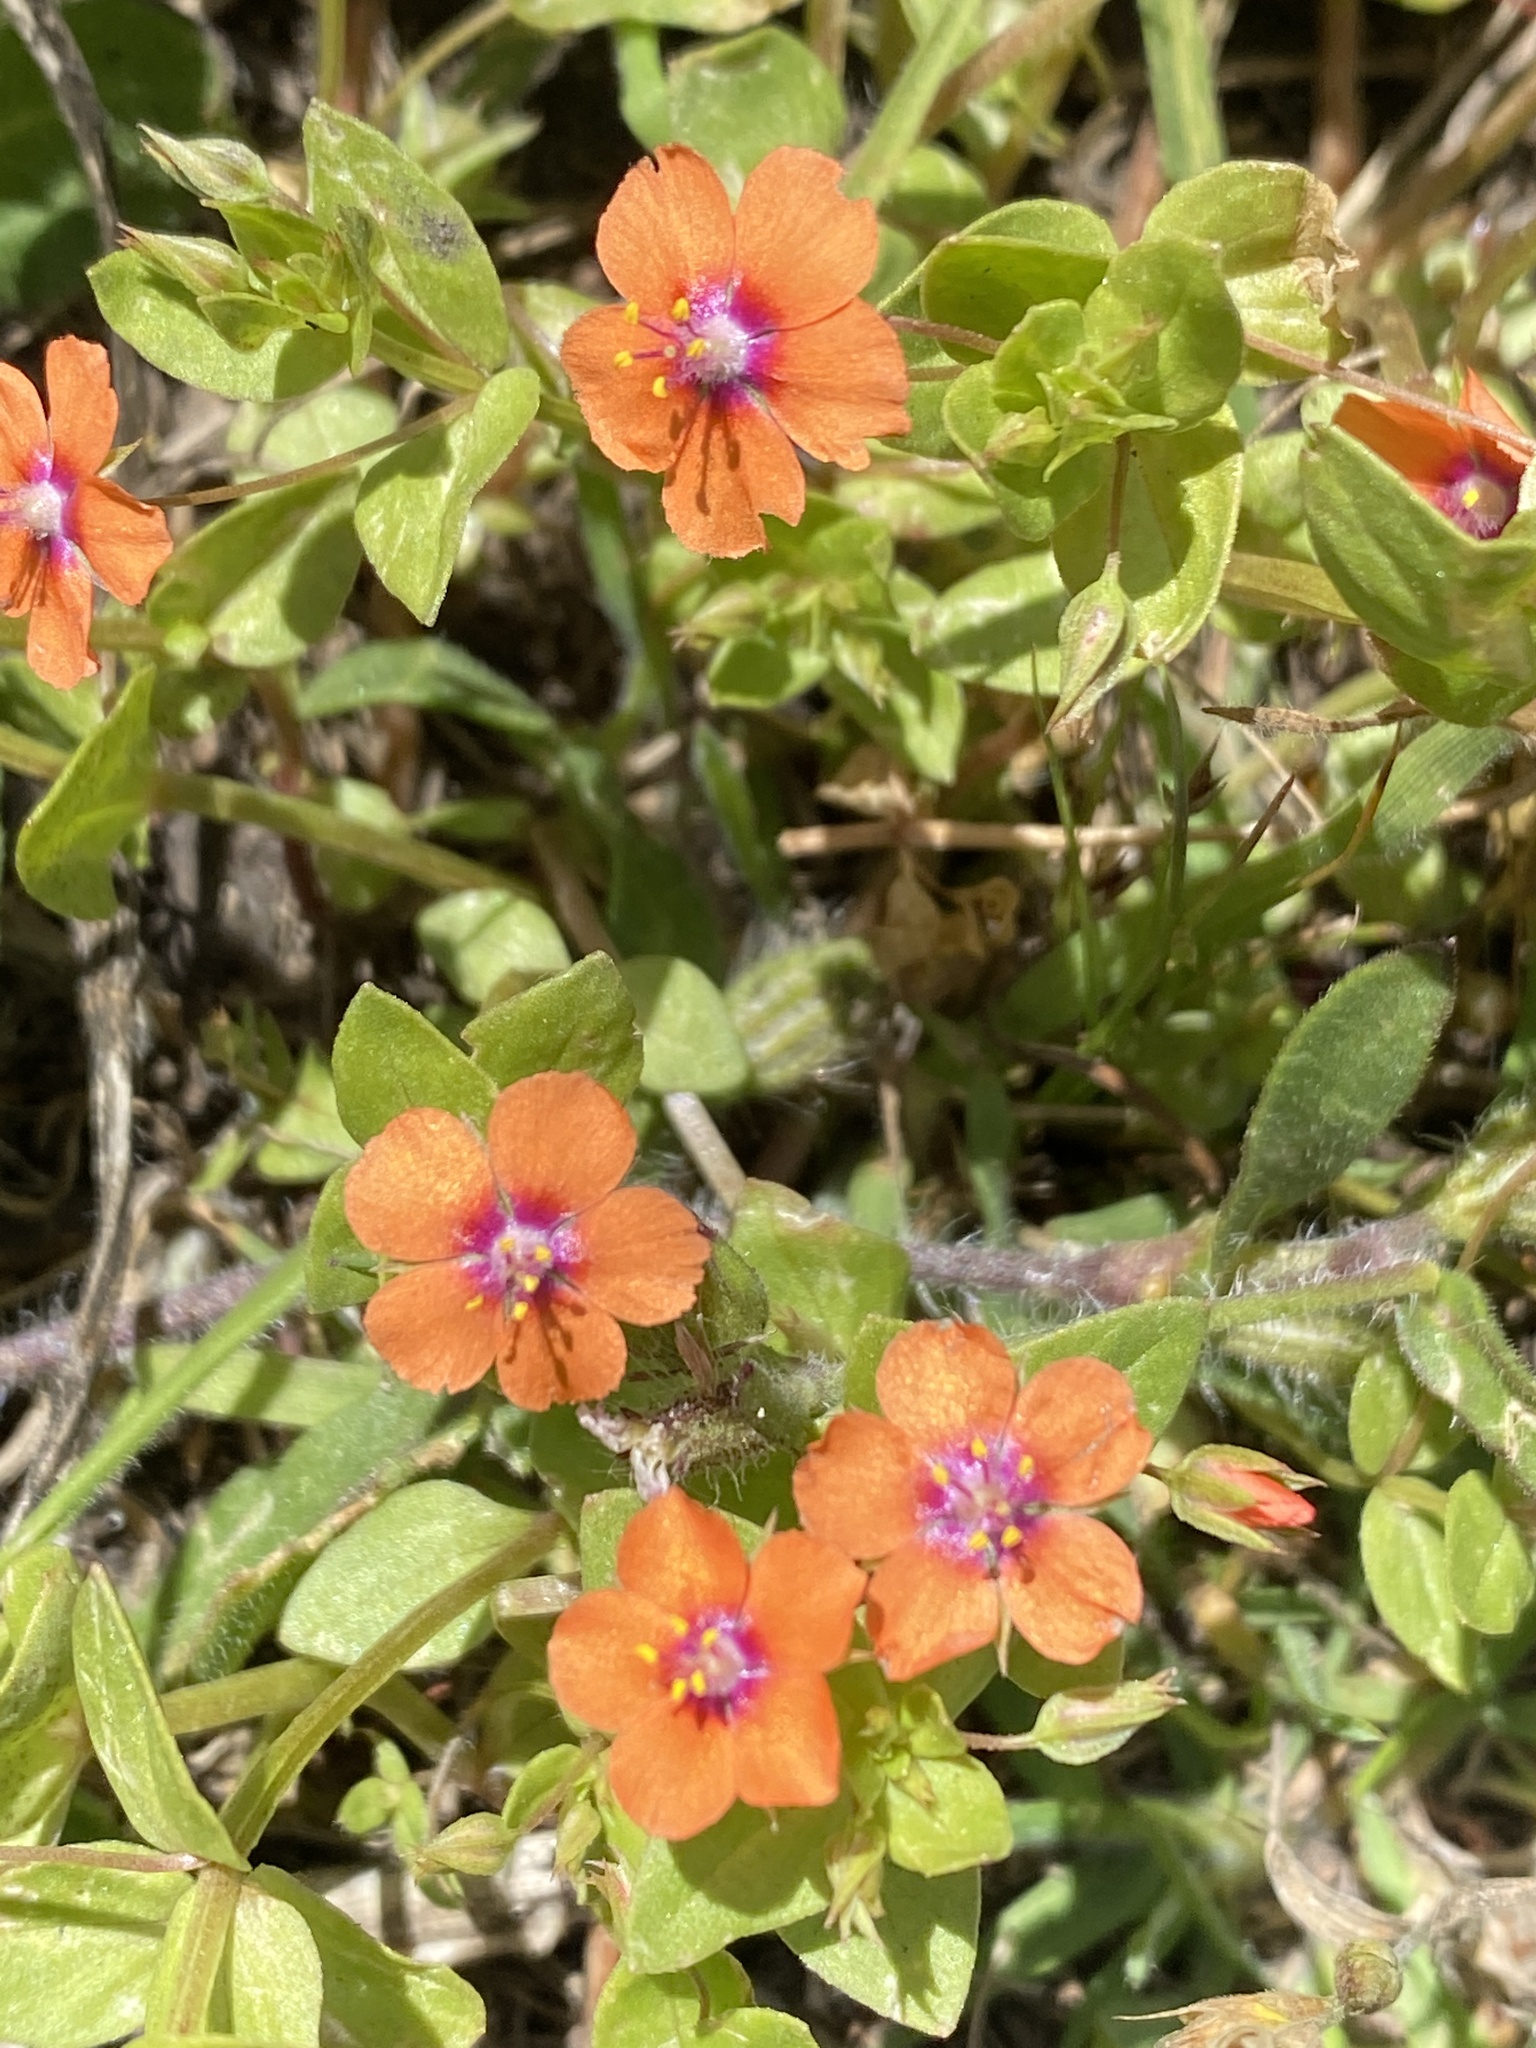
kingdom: Plantae
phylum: Tracheophyta
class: Magnoliopsida
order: Ericales
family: Primulaceae
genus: Lysimachia
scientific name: Lysimachia arvensis
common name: Scarlet pimpernel
